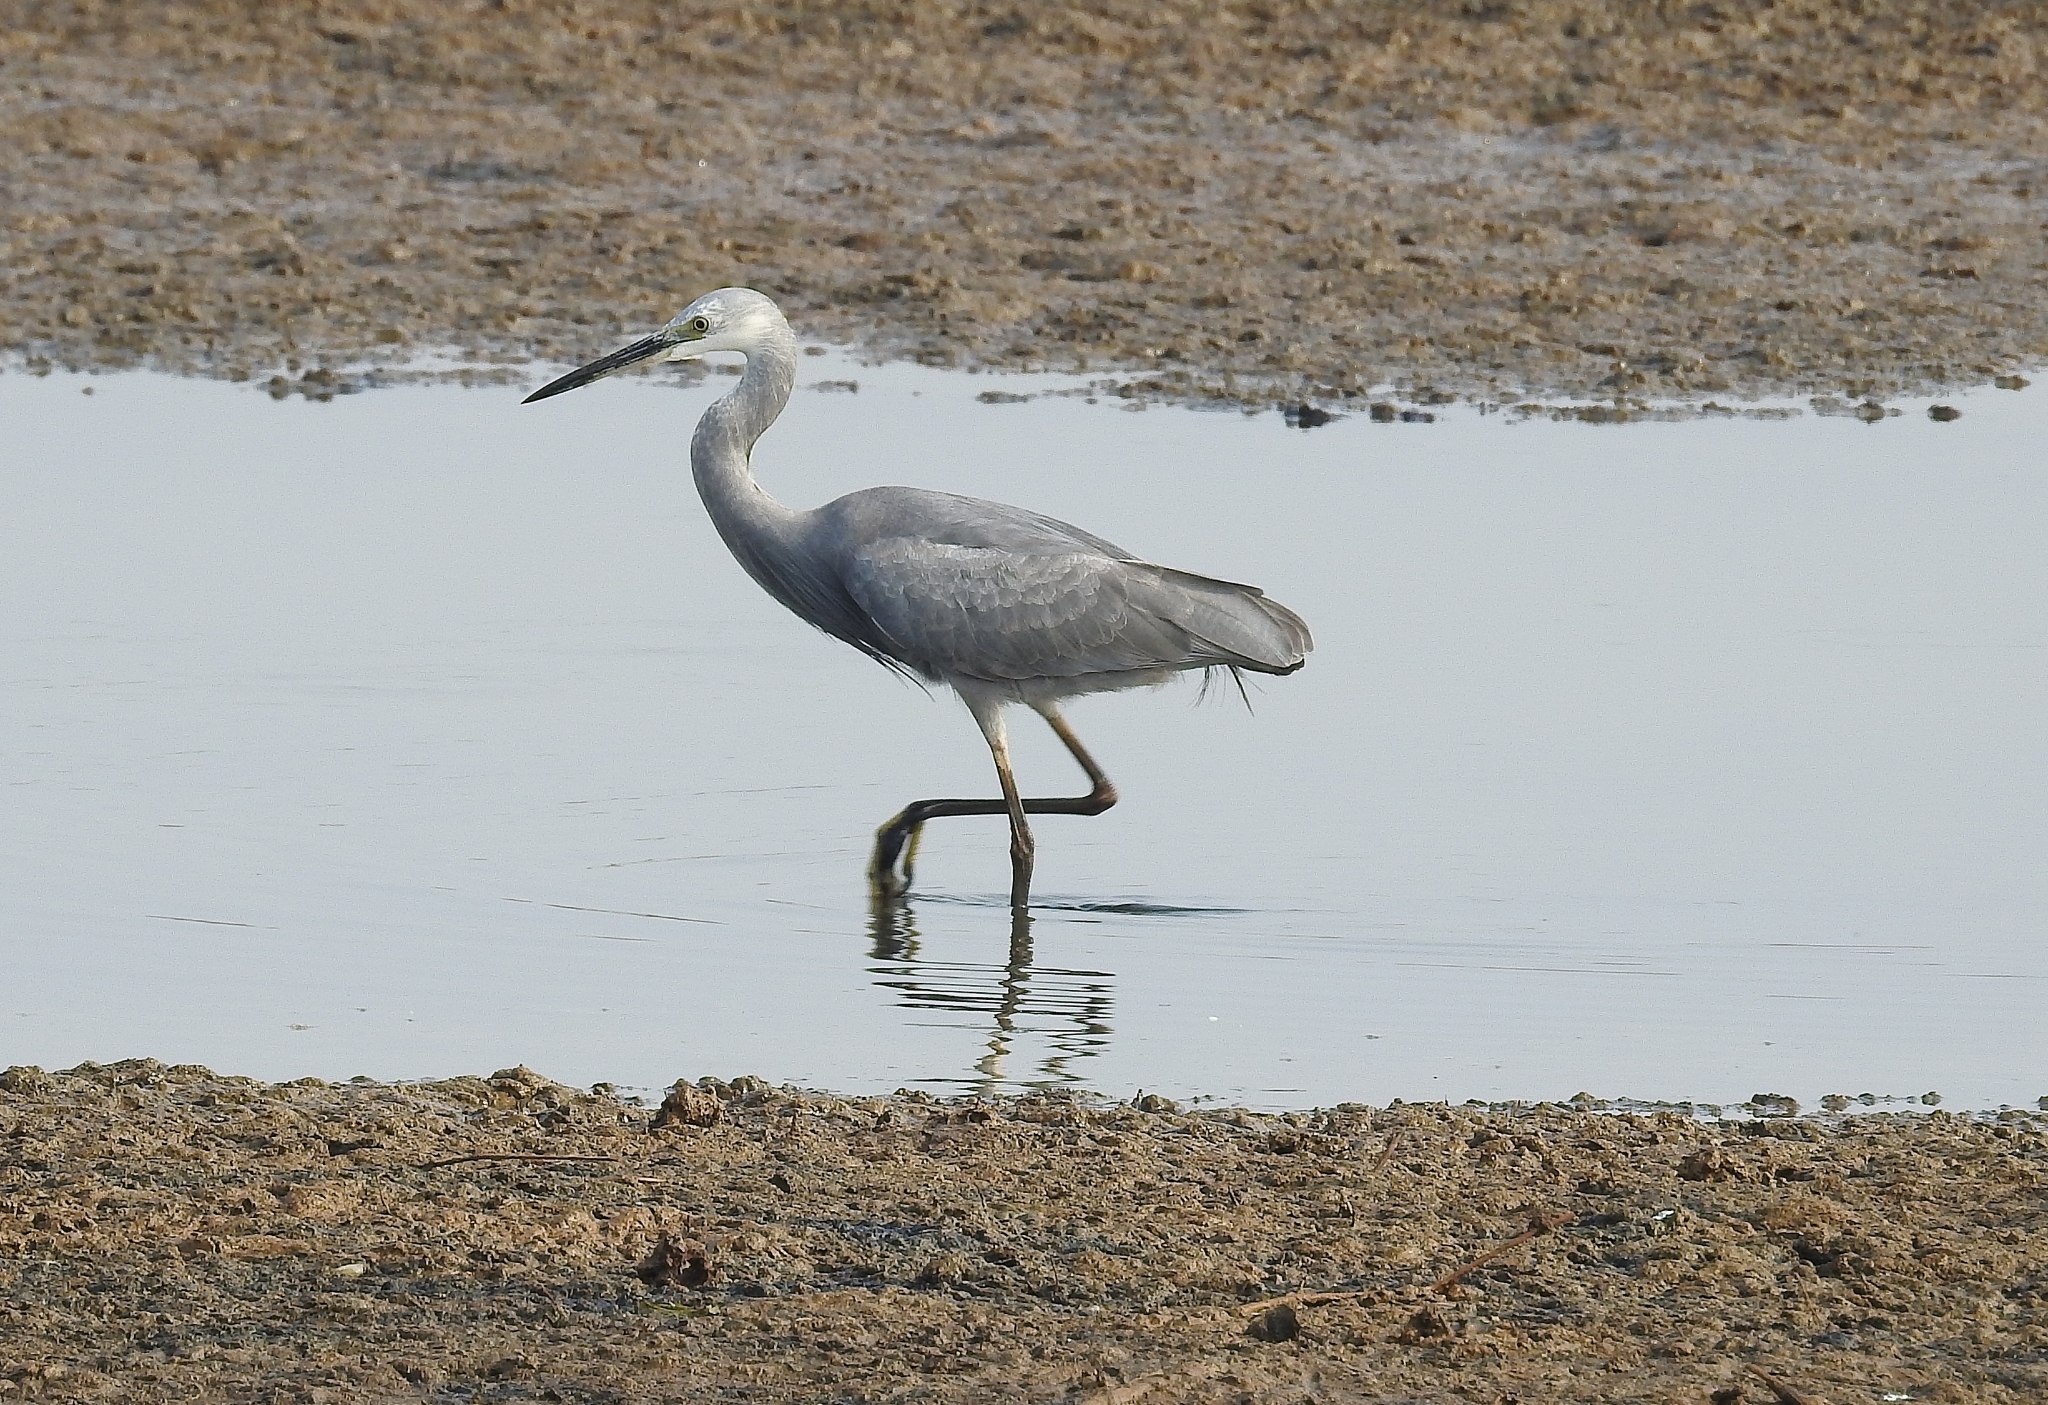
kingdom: Animalia
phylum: Chordata
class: Aves
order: Pelecaniformes
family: Ardeidae
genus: Egretta
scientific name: Egretta garzetta
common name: Little egret
